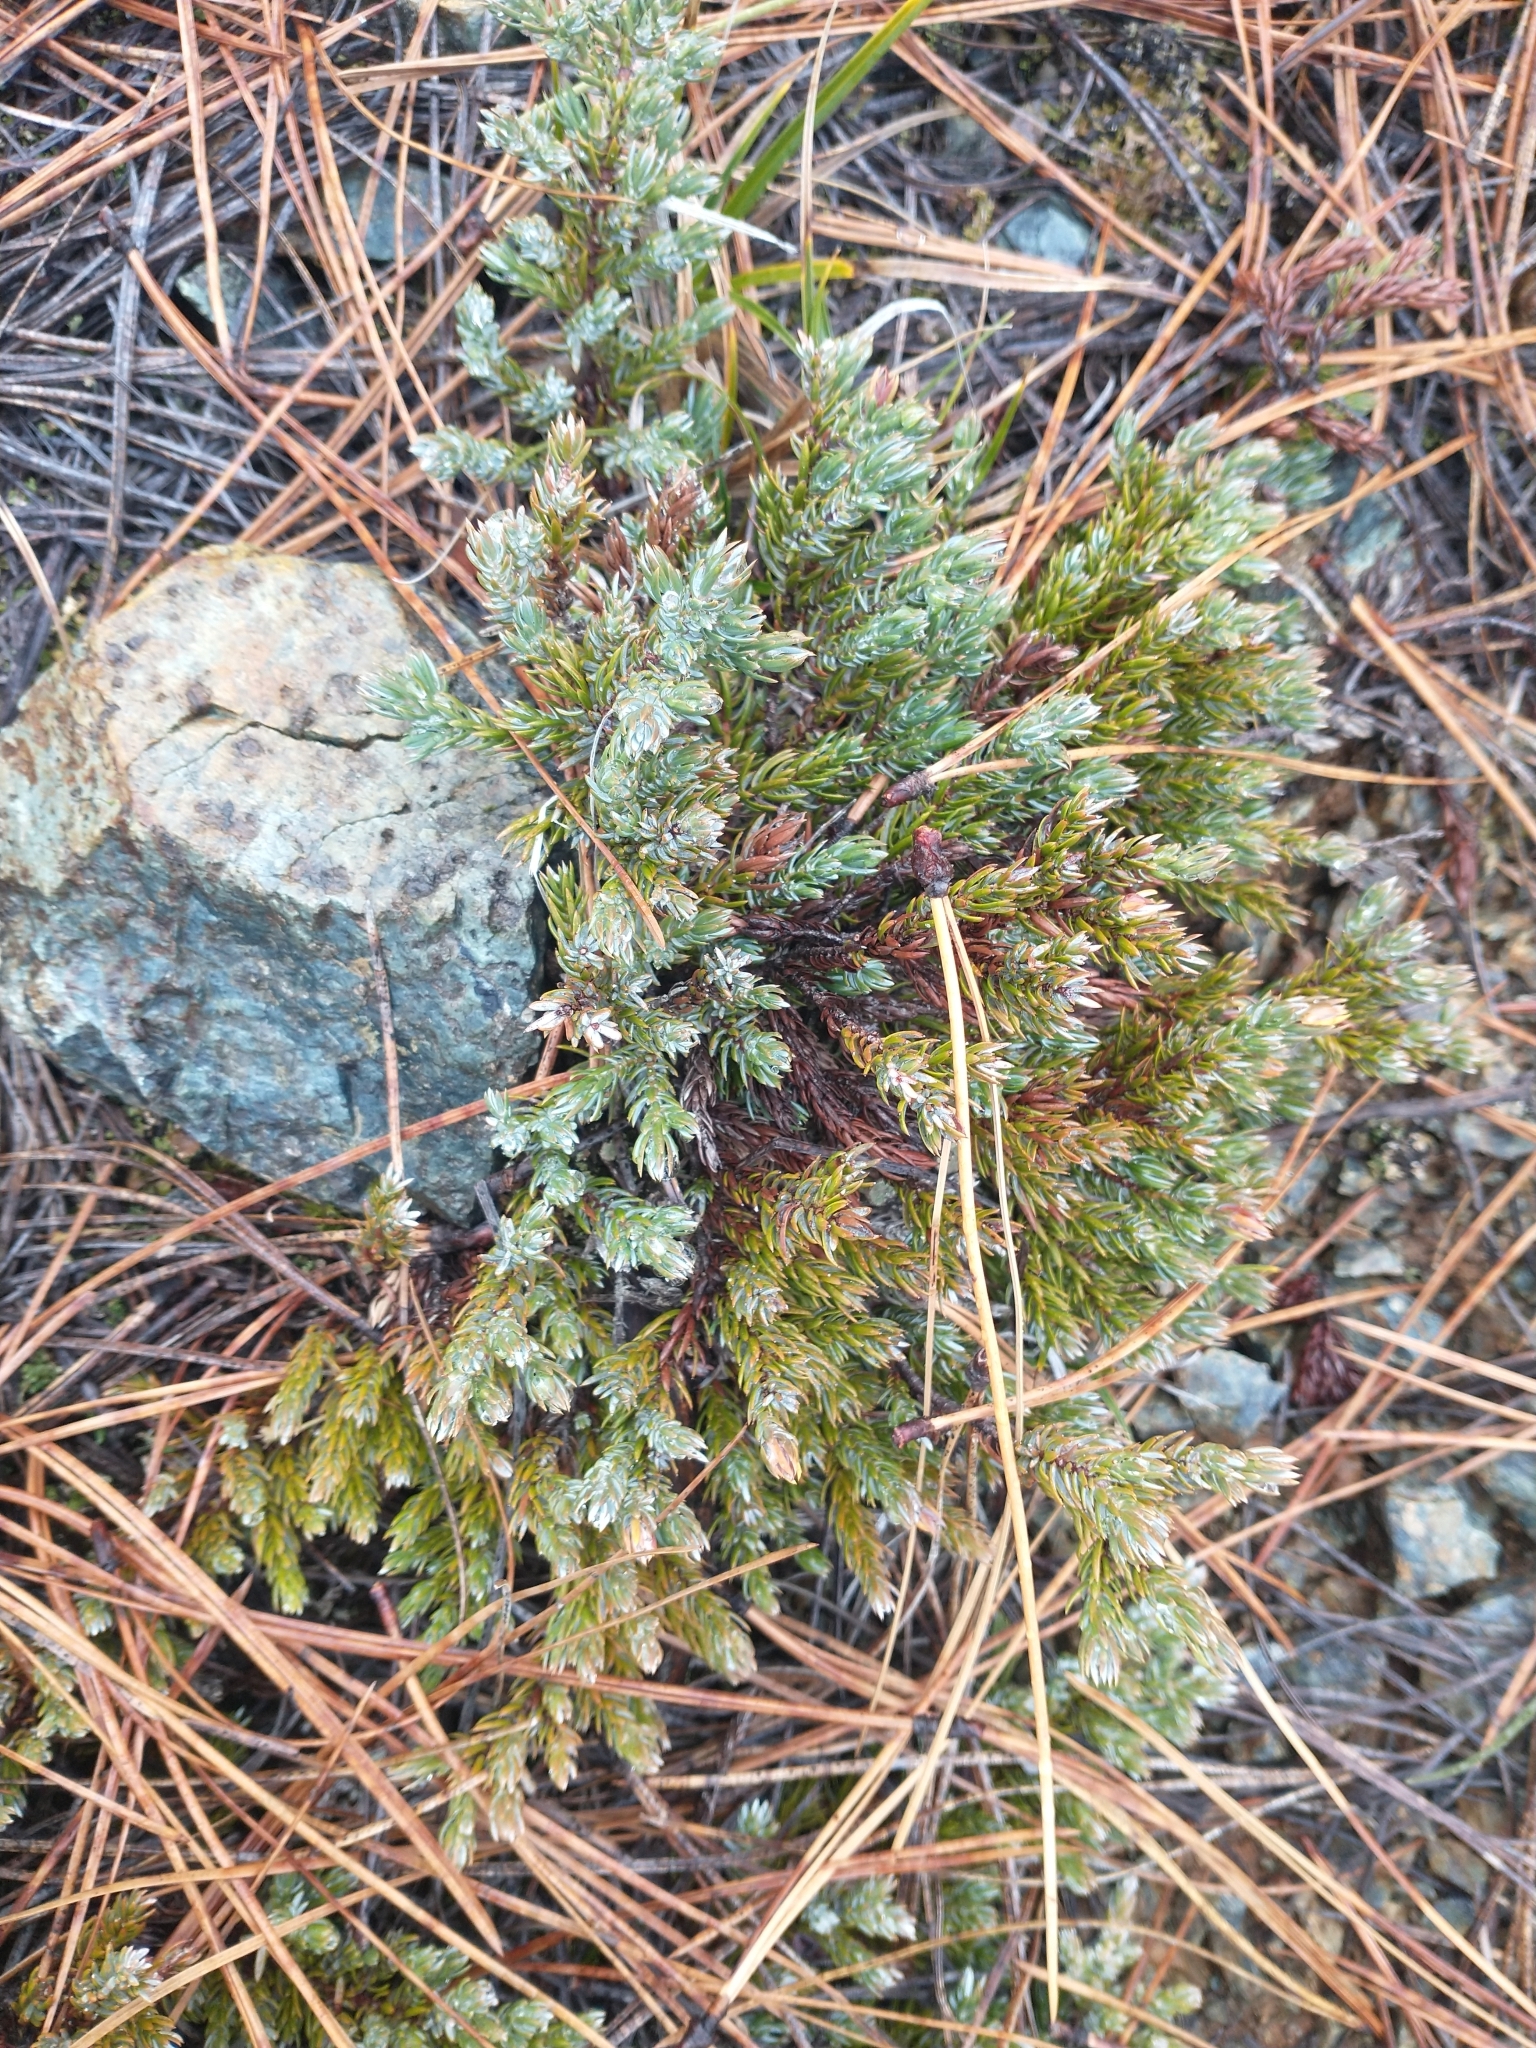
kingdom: Plantae
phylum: Tracheophyta
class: Pinopsida
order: Pinales
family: Cupressaceae
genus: Juniperus
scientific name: Juniperus communis
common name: Common juniper
